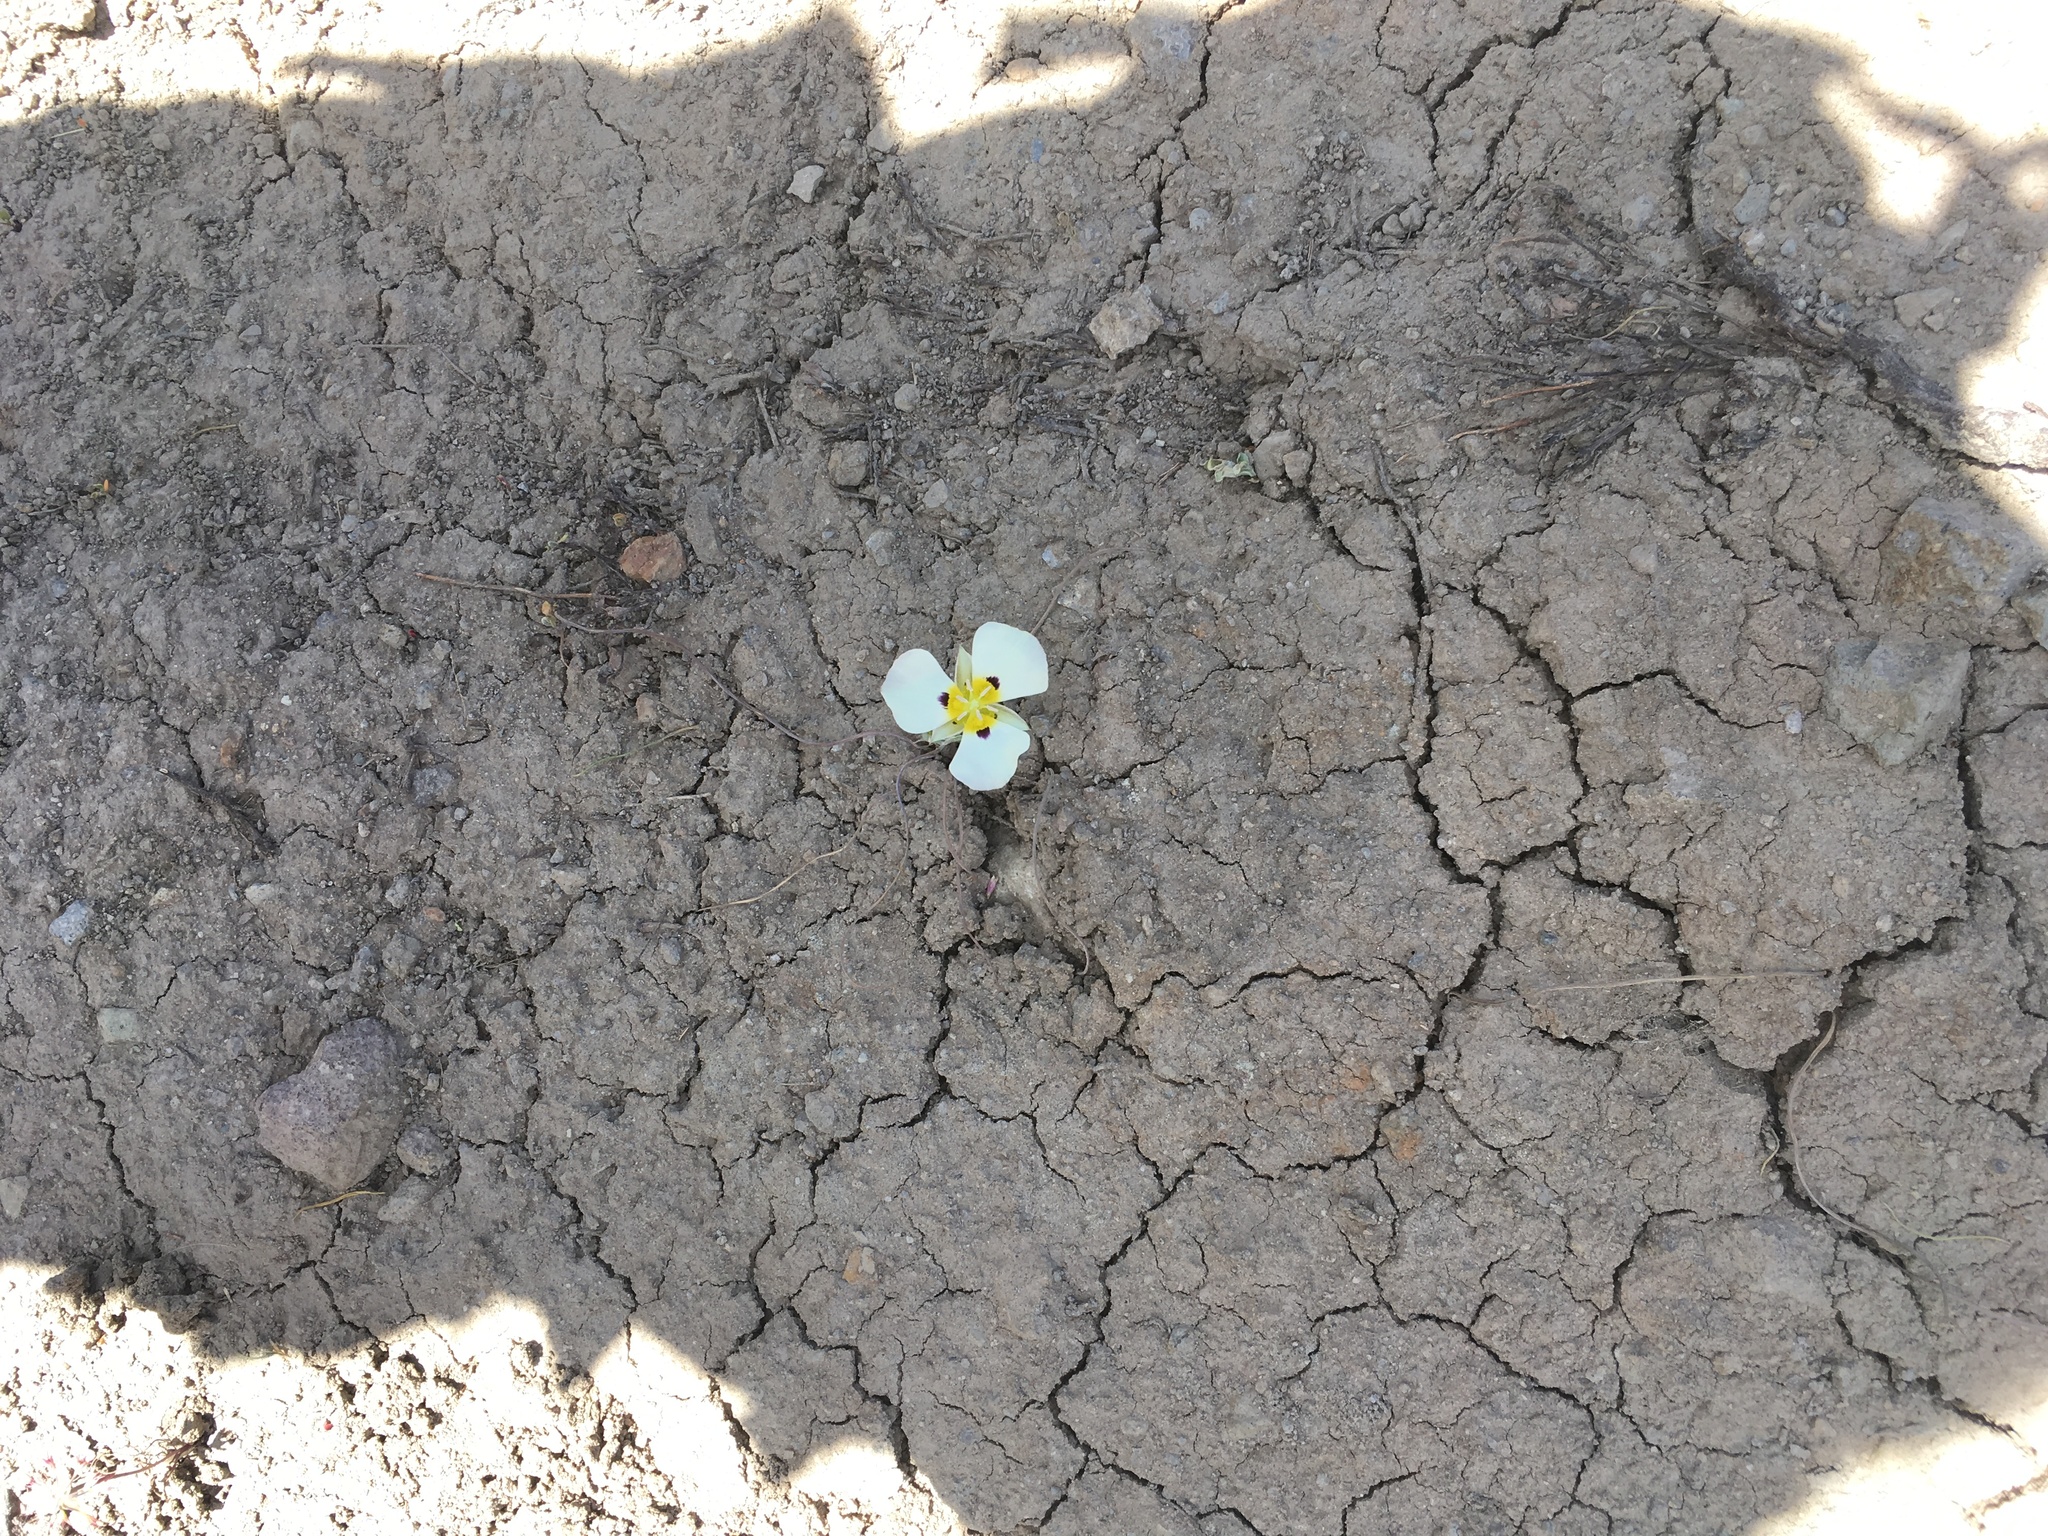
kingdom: Plantae
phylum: Tracheophyta
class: Liliopsida
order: Liliales
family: Liliaceae
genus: Calochortus
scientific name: Calochortus leichtlinii
